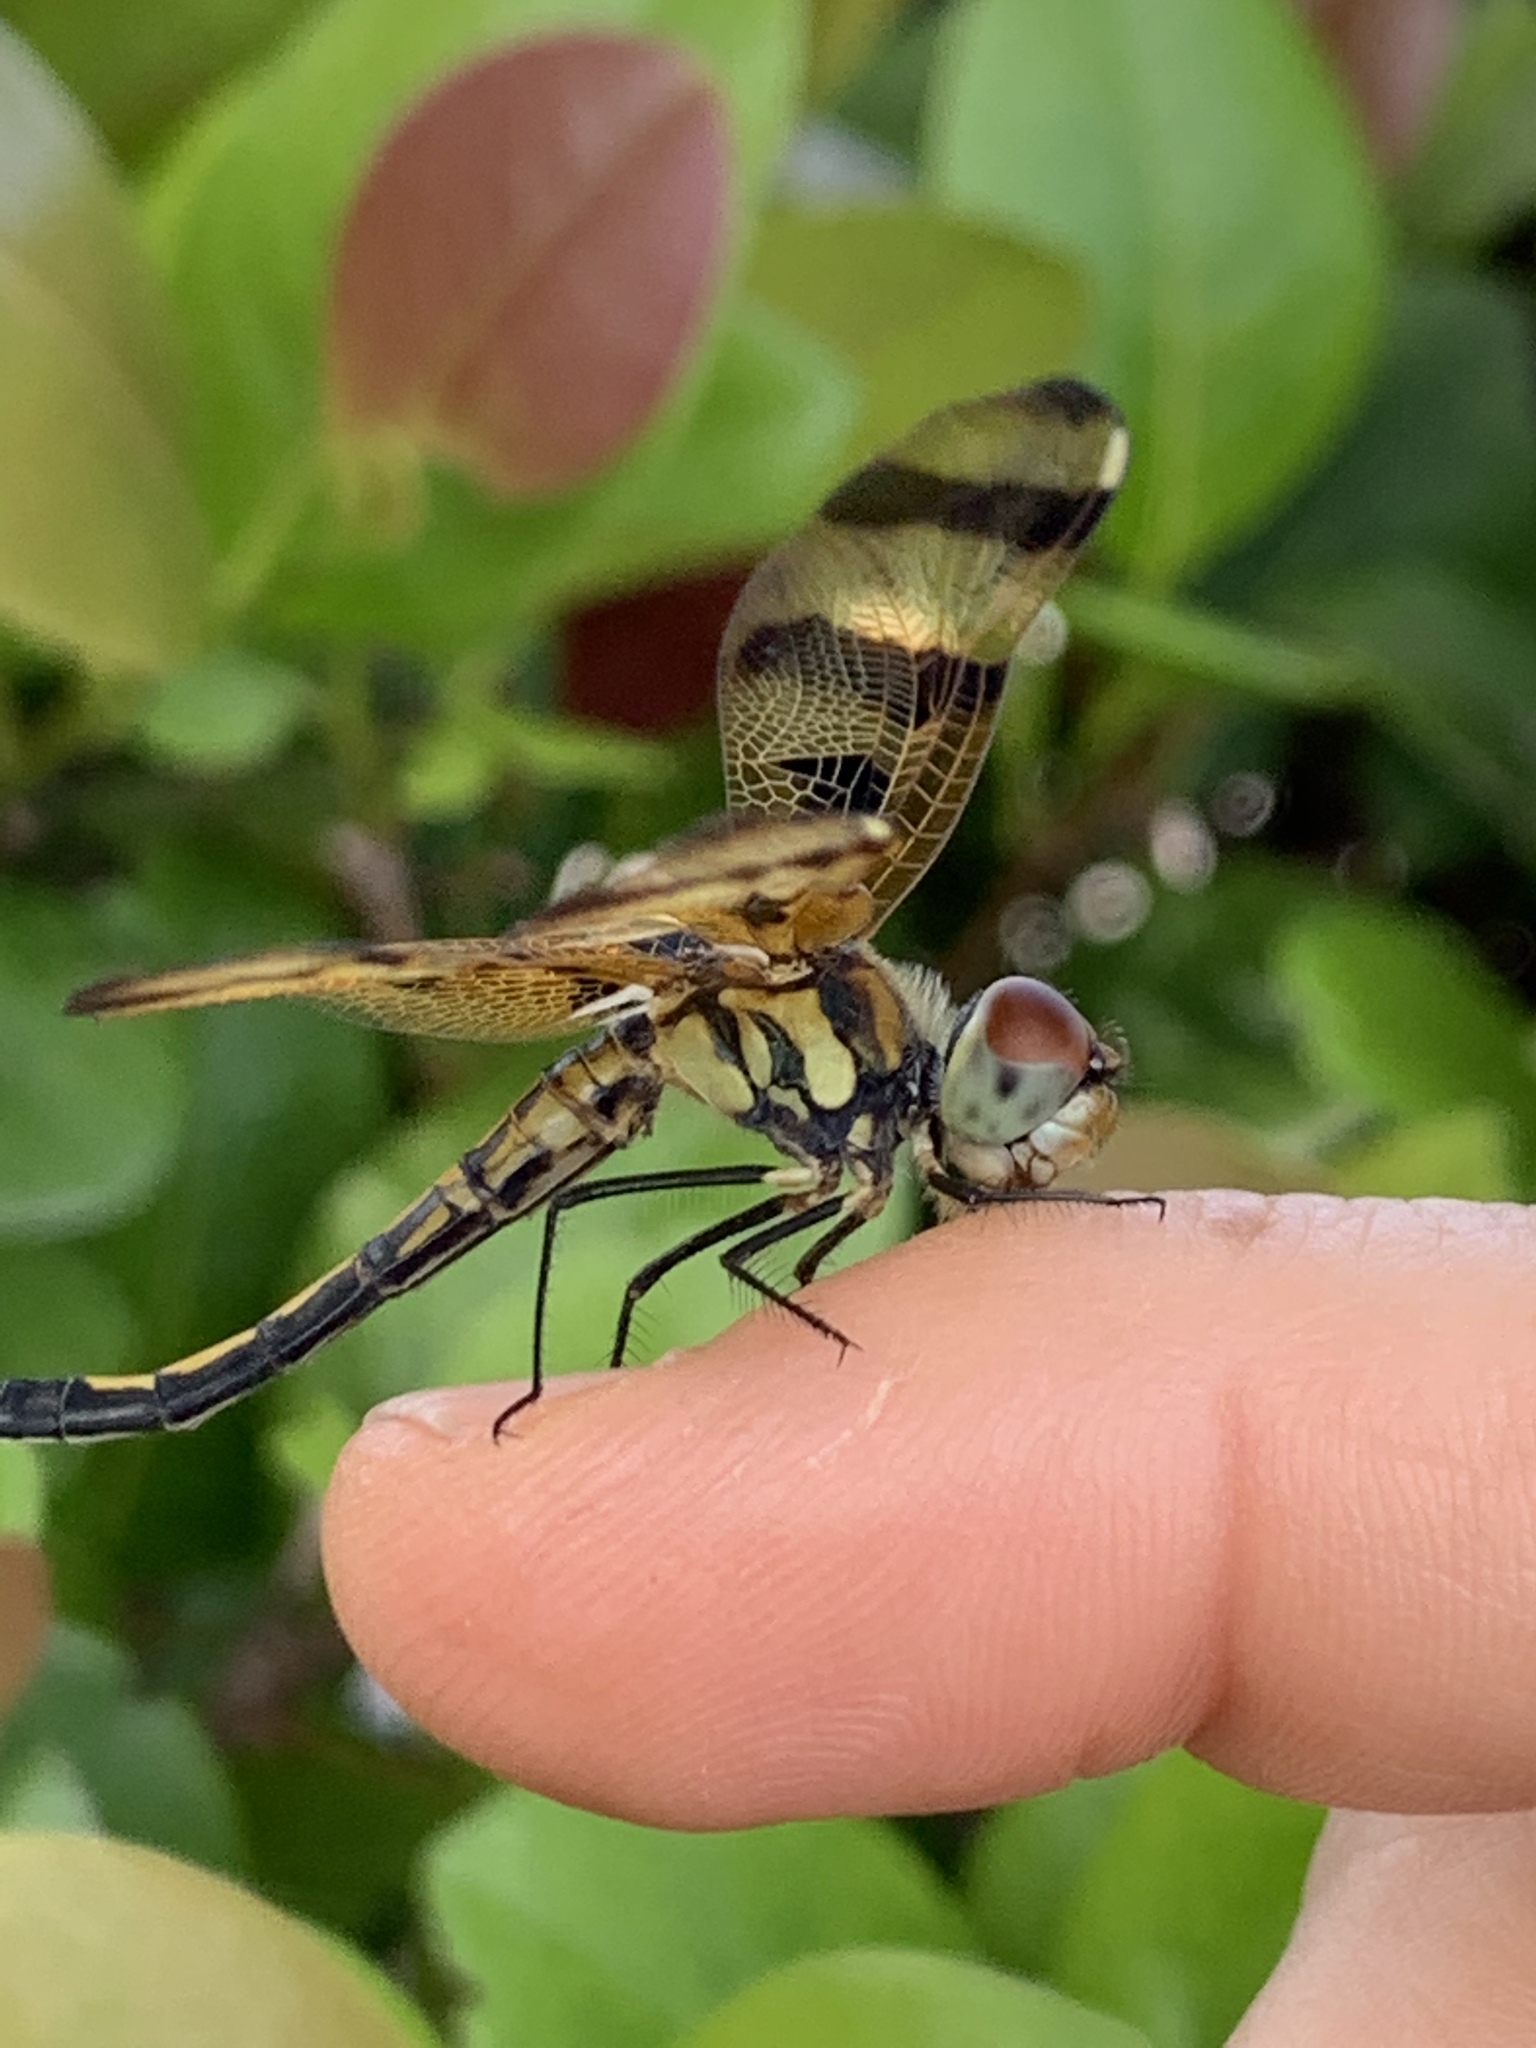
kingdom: Animalia
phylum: Arthropoda
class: Insecta
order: Odonata
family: Libellulidae
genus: Celithemis
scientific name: Celithemis eponina
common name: Halloween pennant
